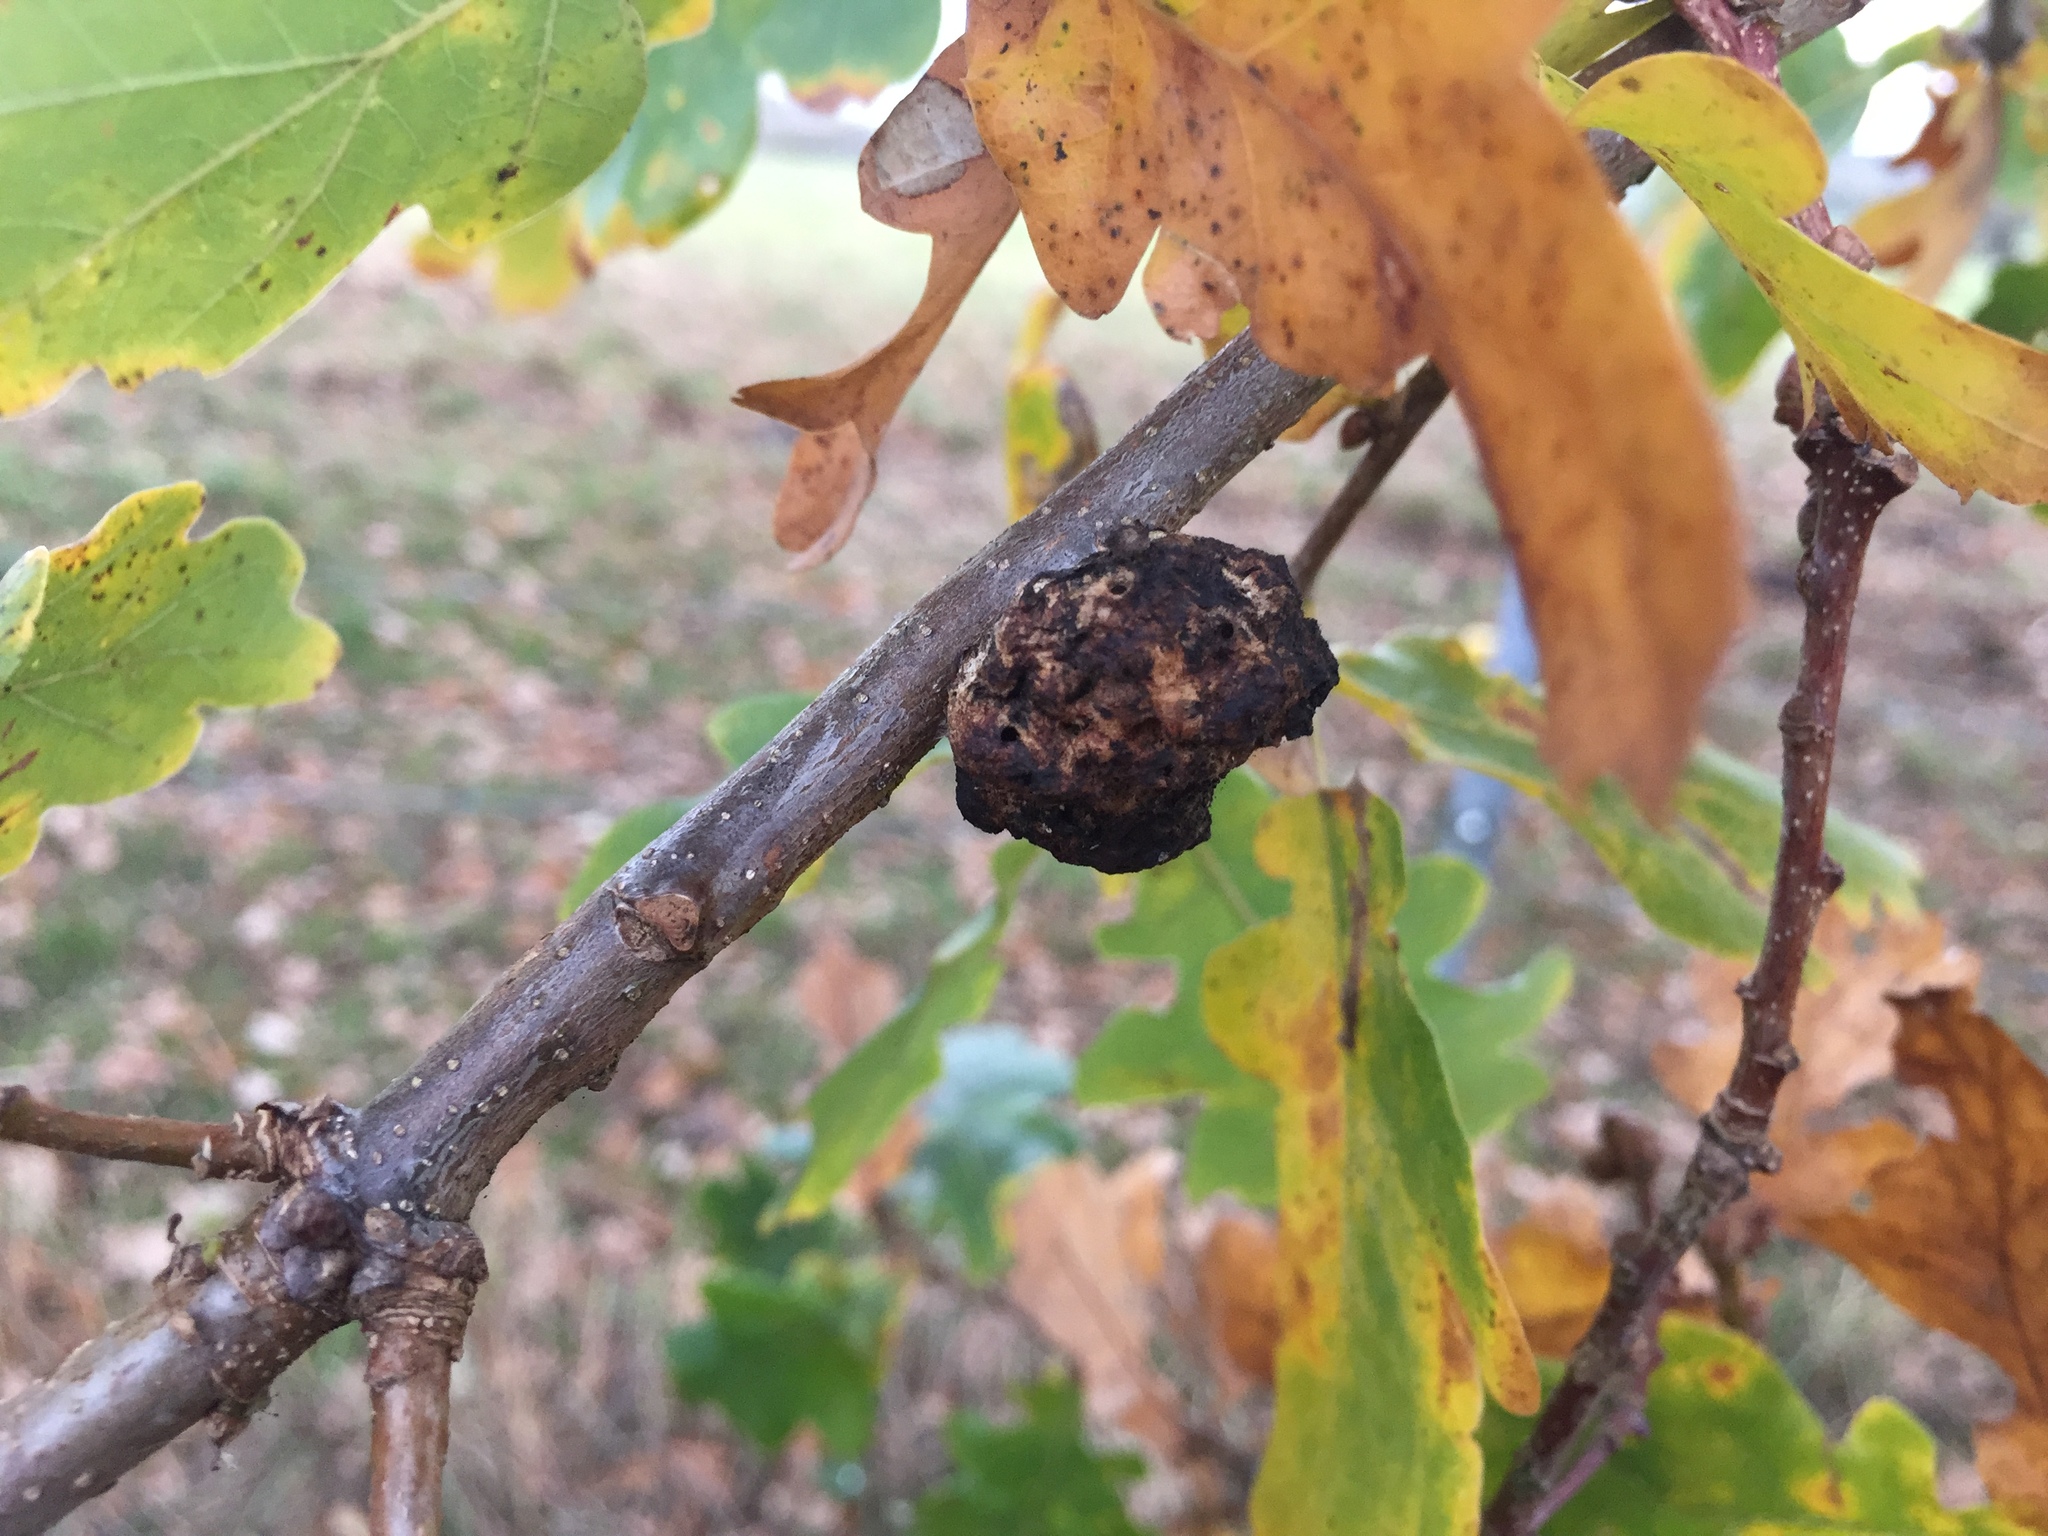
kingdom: Animalia
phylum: Arthropoda
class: Insecta
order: Hymenoptera
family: Cynipidae
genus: Biorhiza
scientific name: Biorhiza pallida
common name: Oak apple
